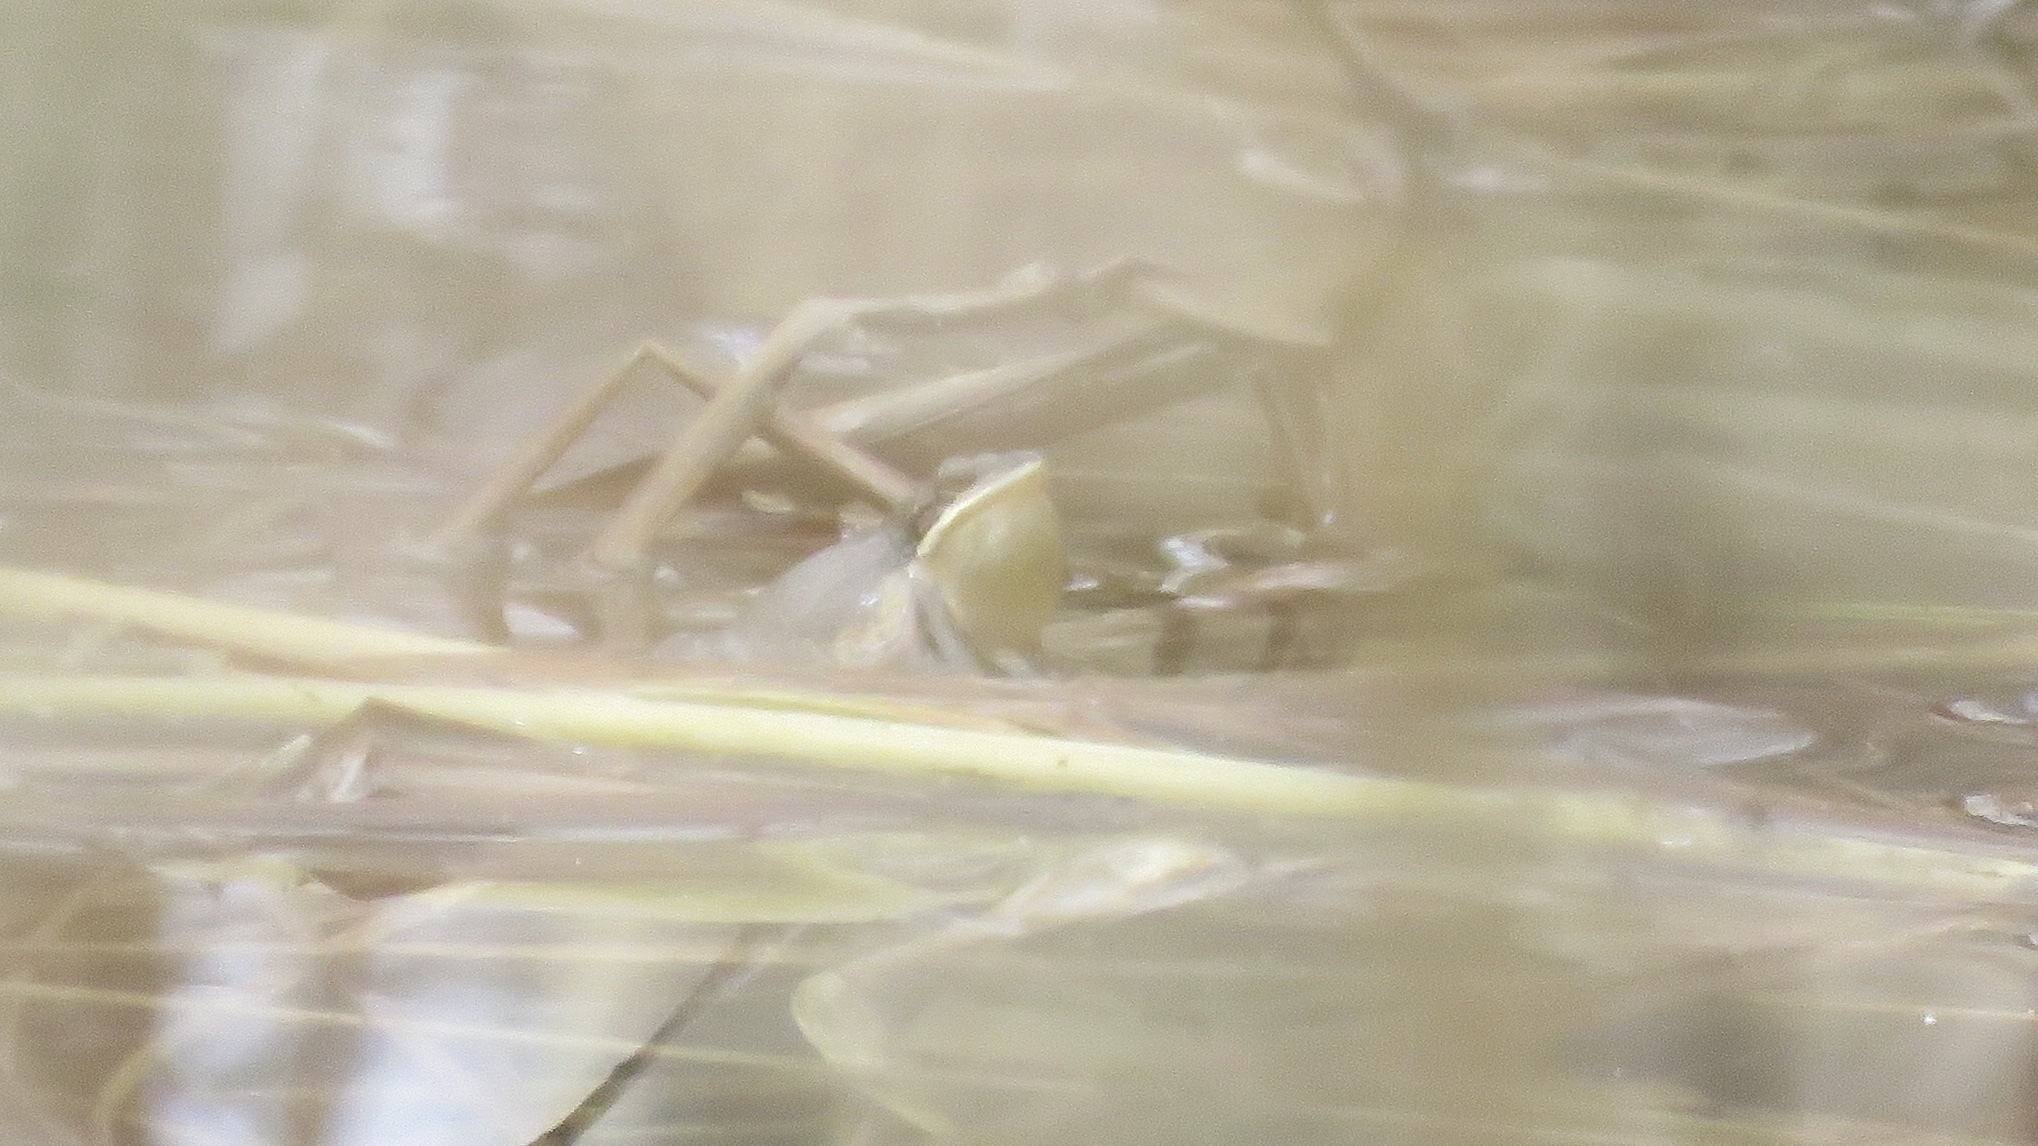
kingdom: Animalia
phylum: Chordata
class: Amphibia
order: Anura
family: Hylidae
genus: Pseudacris
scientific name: Pseudacris maculata
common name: Boreal chorus frog
